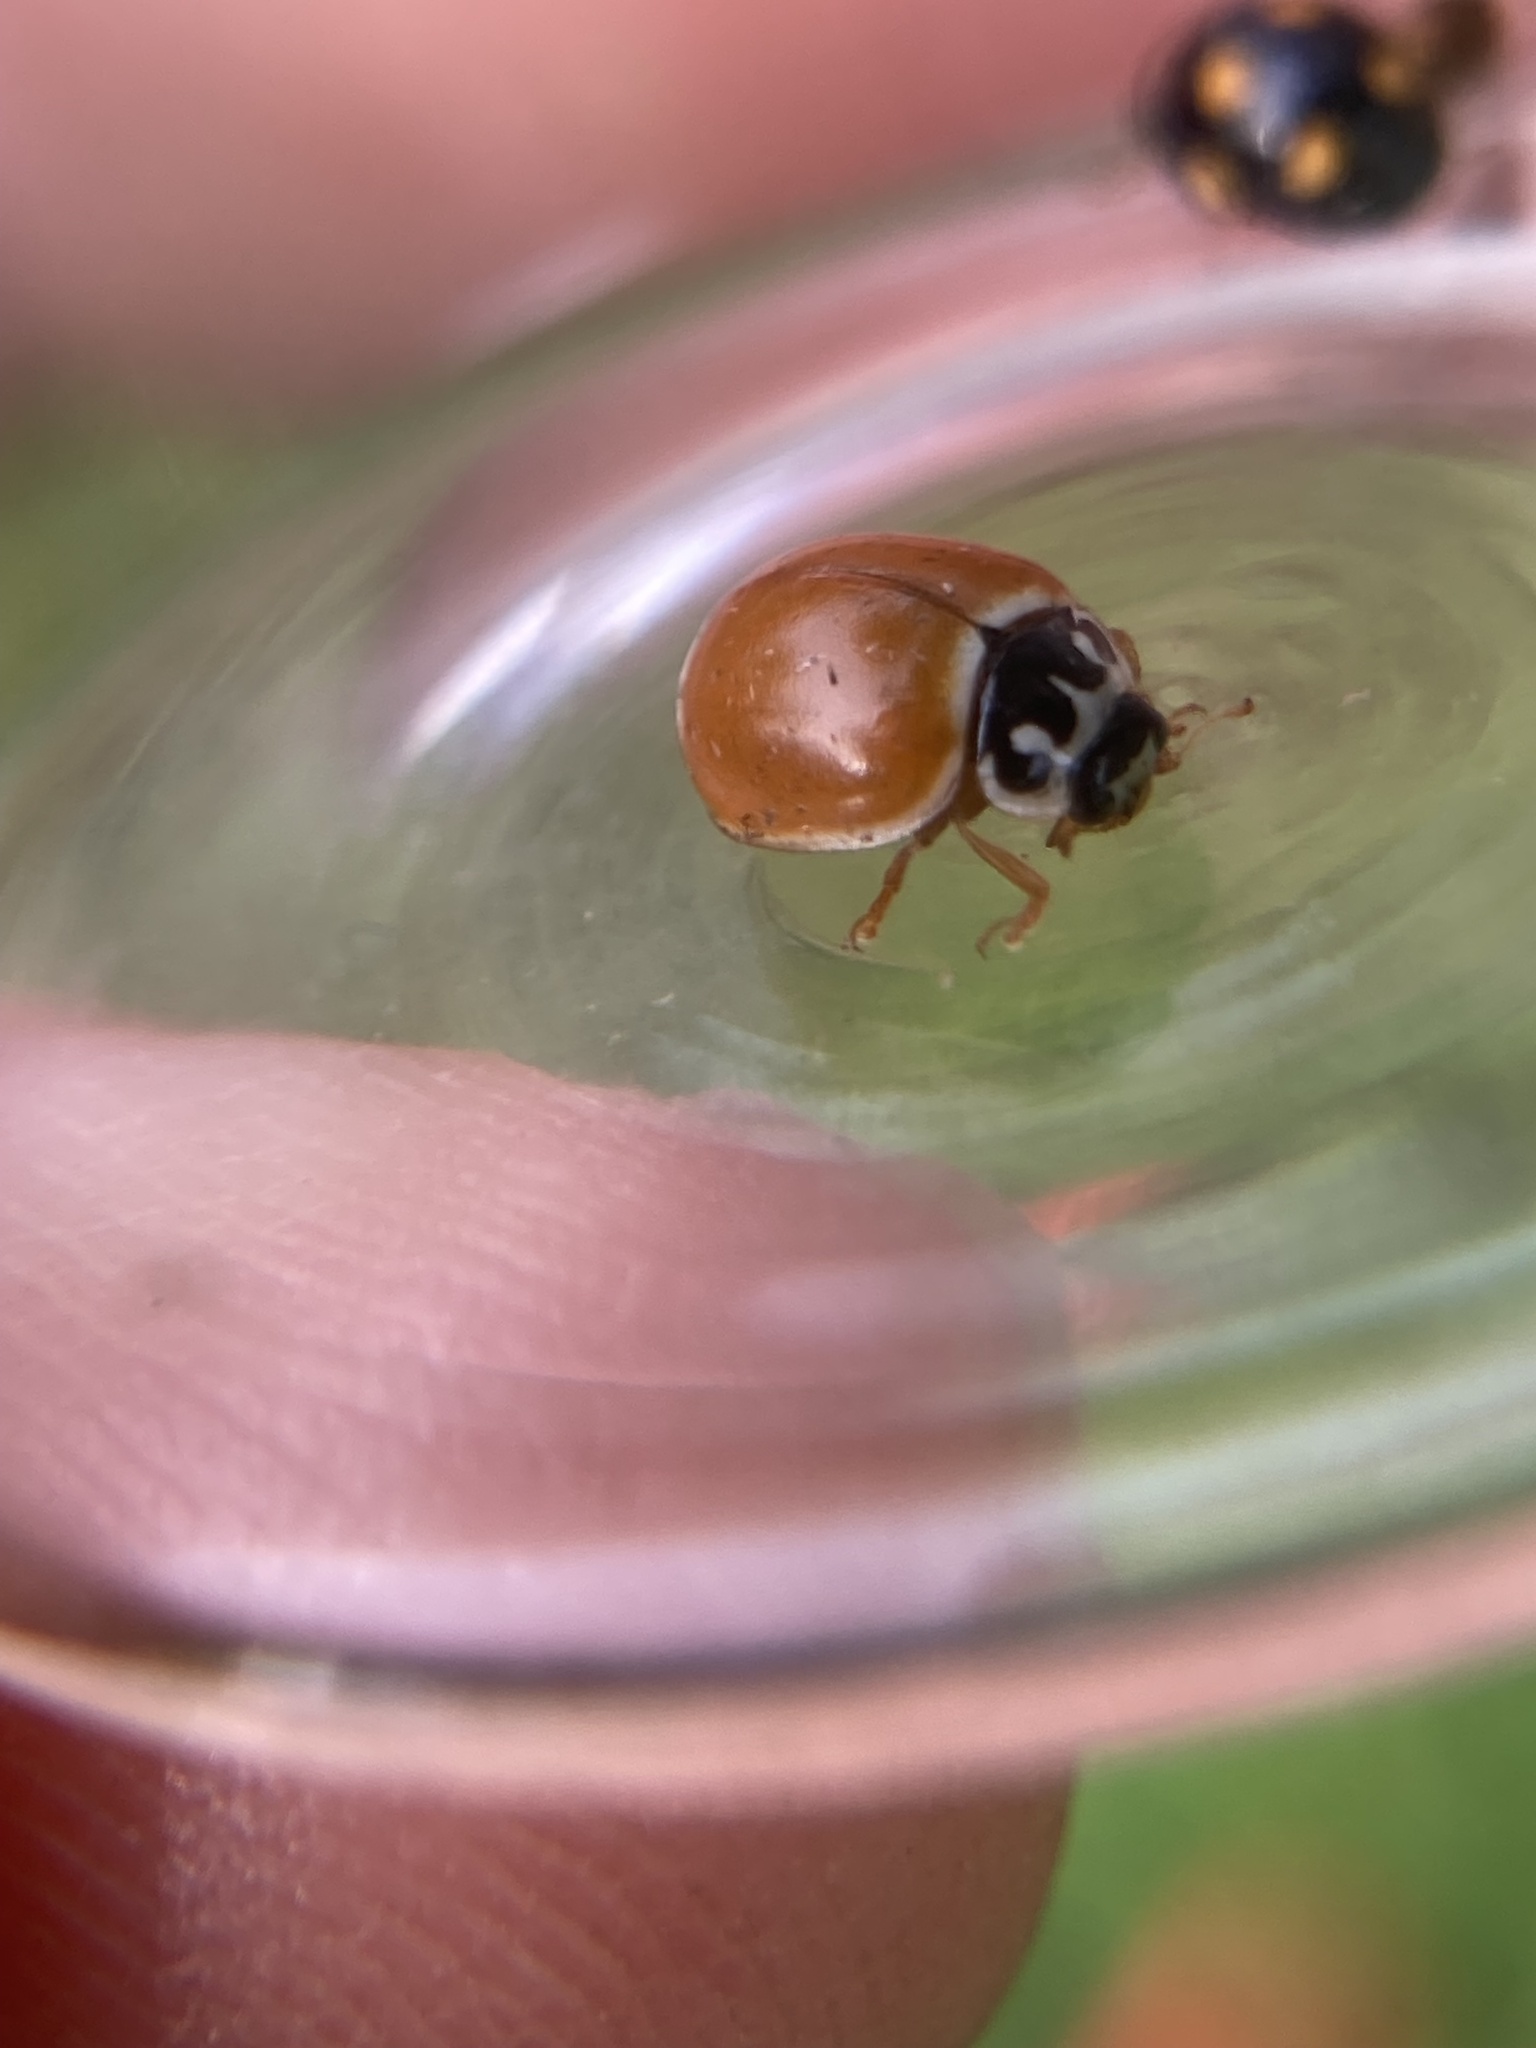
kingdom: Animalia
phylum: Arthropoda
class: Insecta
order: Coleoptera
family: Coccinellidae
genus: Cycloneda
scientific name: Cycloneda munda
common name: Polished lady beetle
